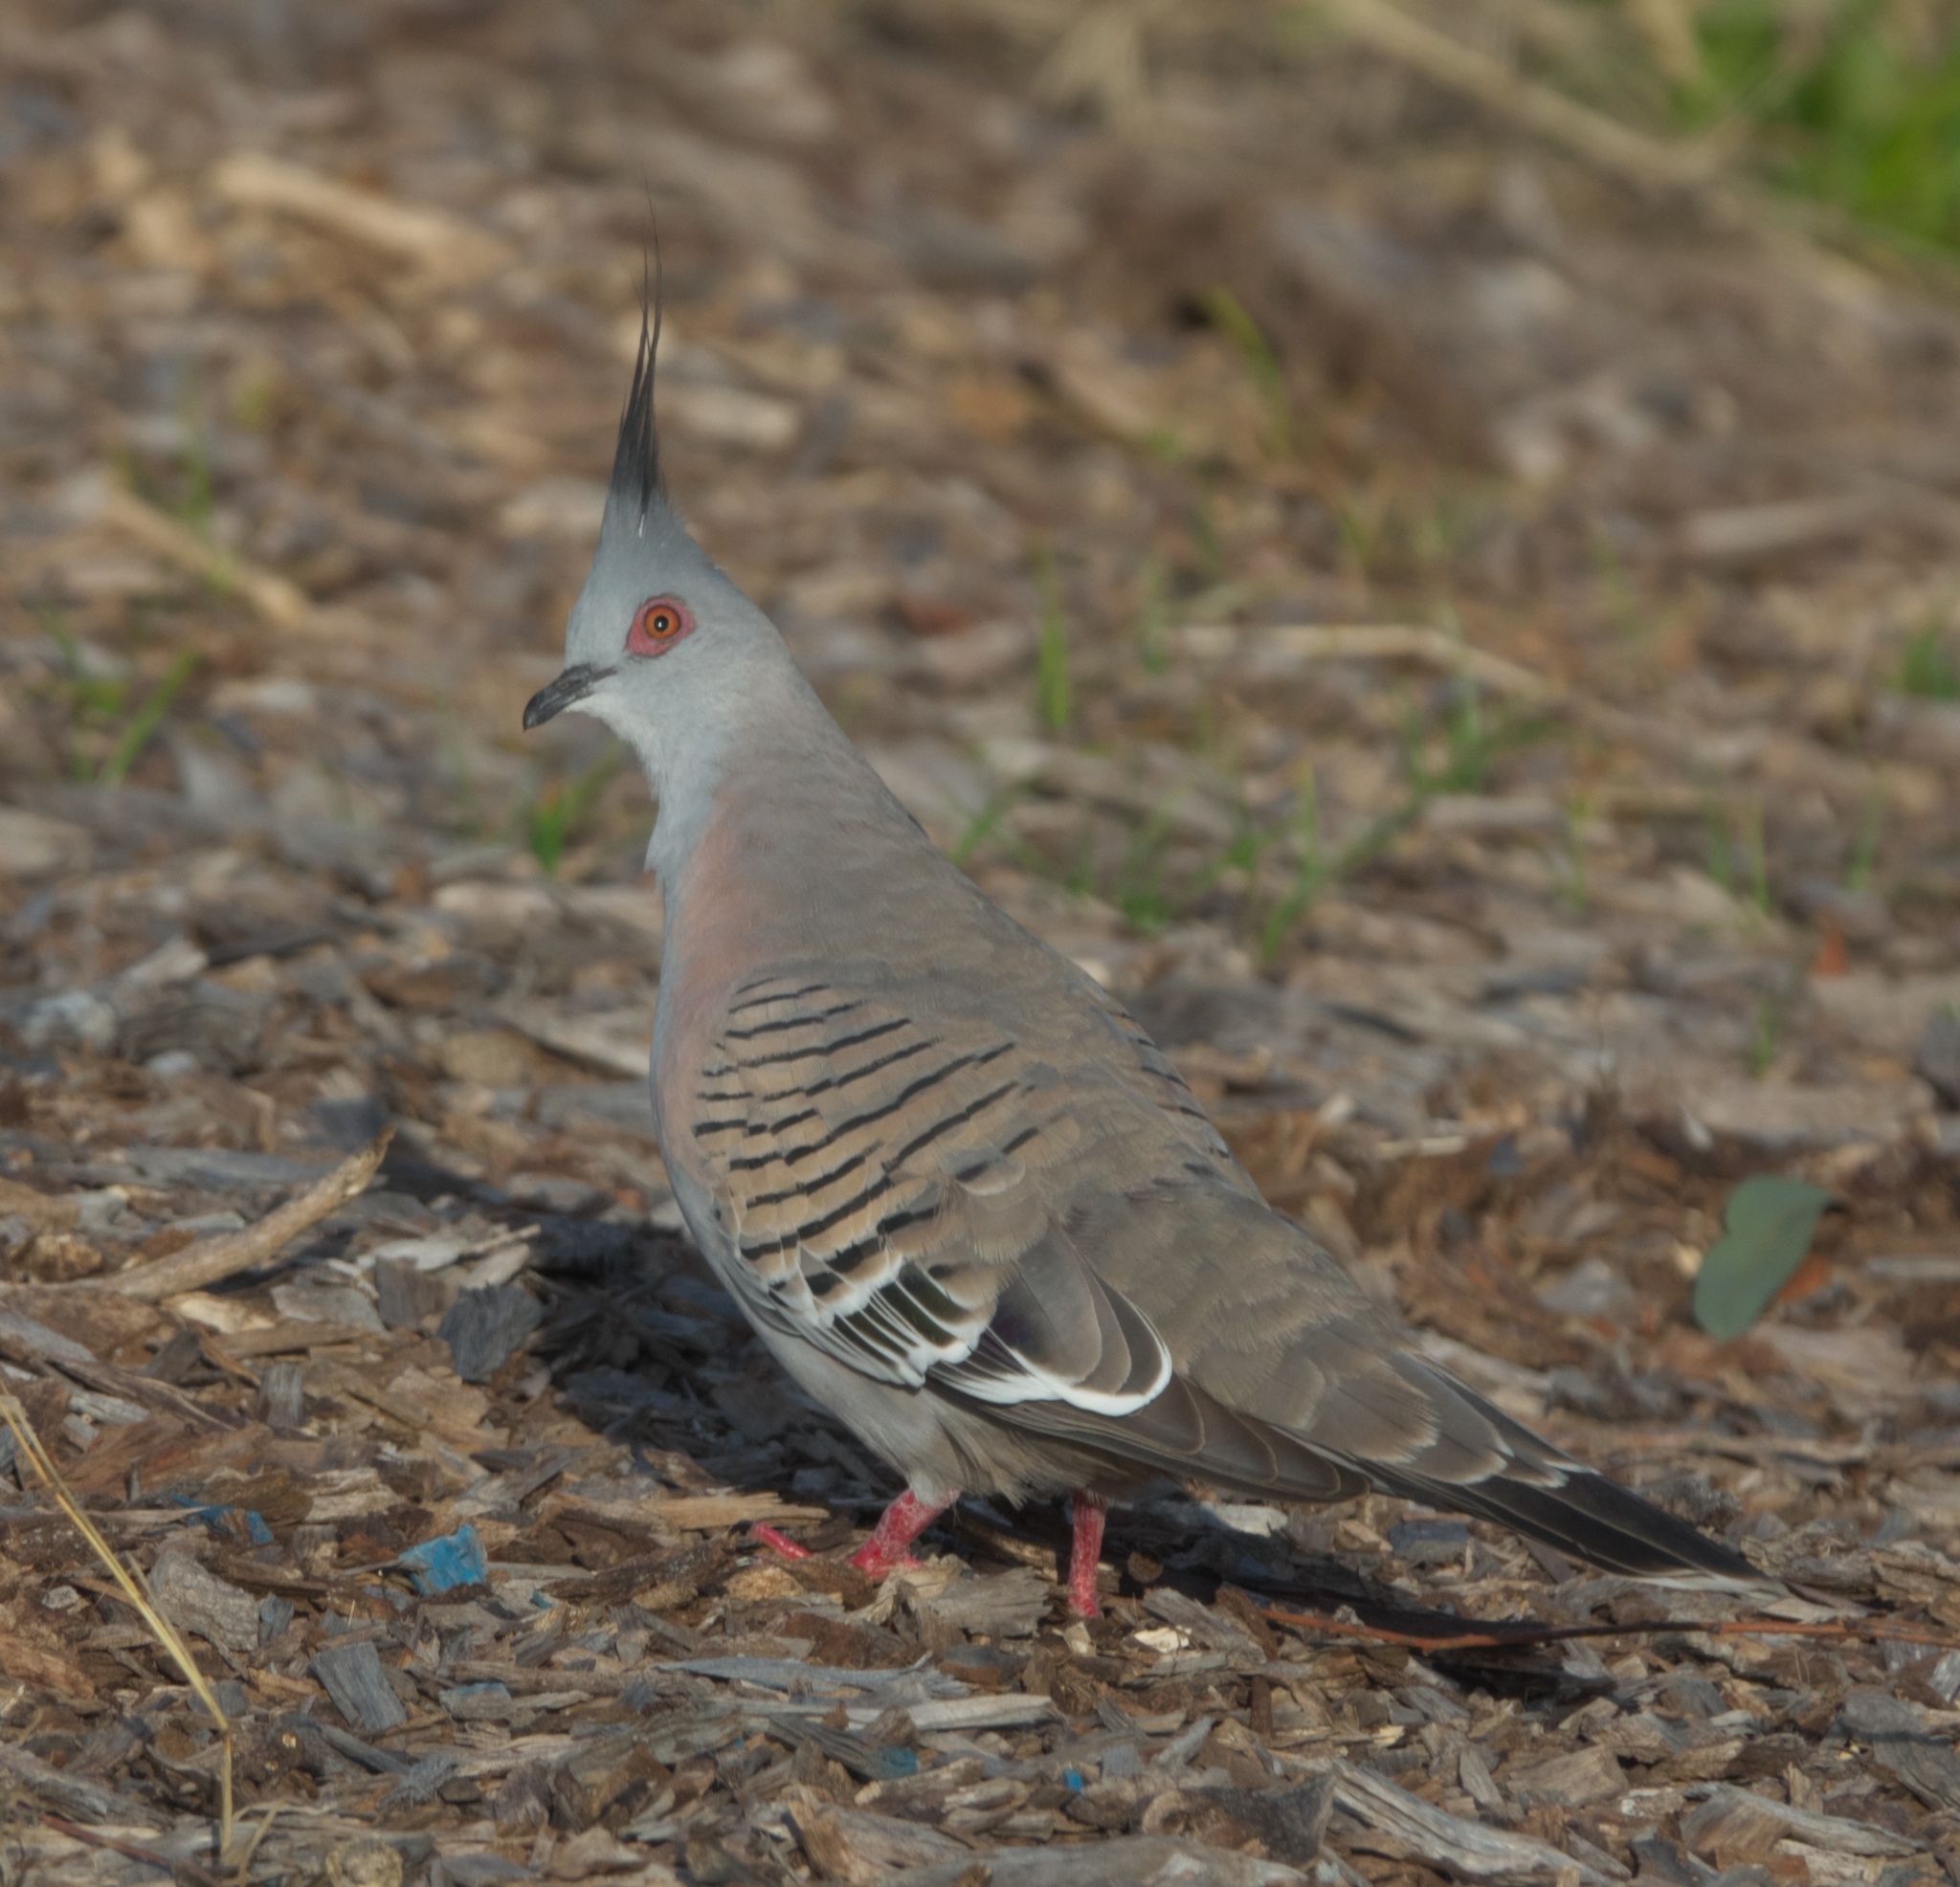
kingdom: Animalia
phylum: Chordata
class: Aves
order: Columbiformes
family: Columbidae
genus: Ocyphaps
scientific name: Ocyphaps lophotes
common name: Crested pigeon
